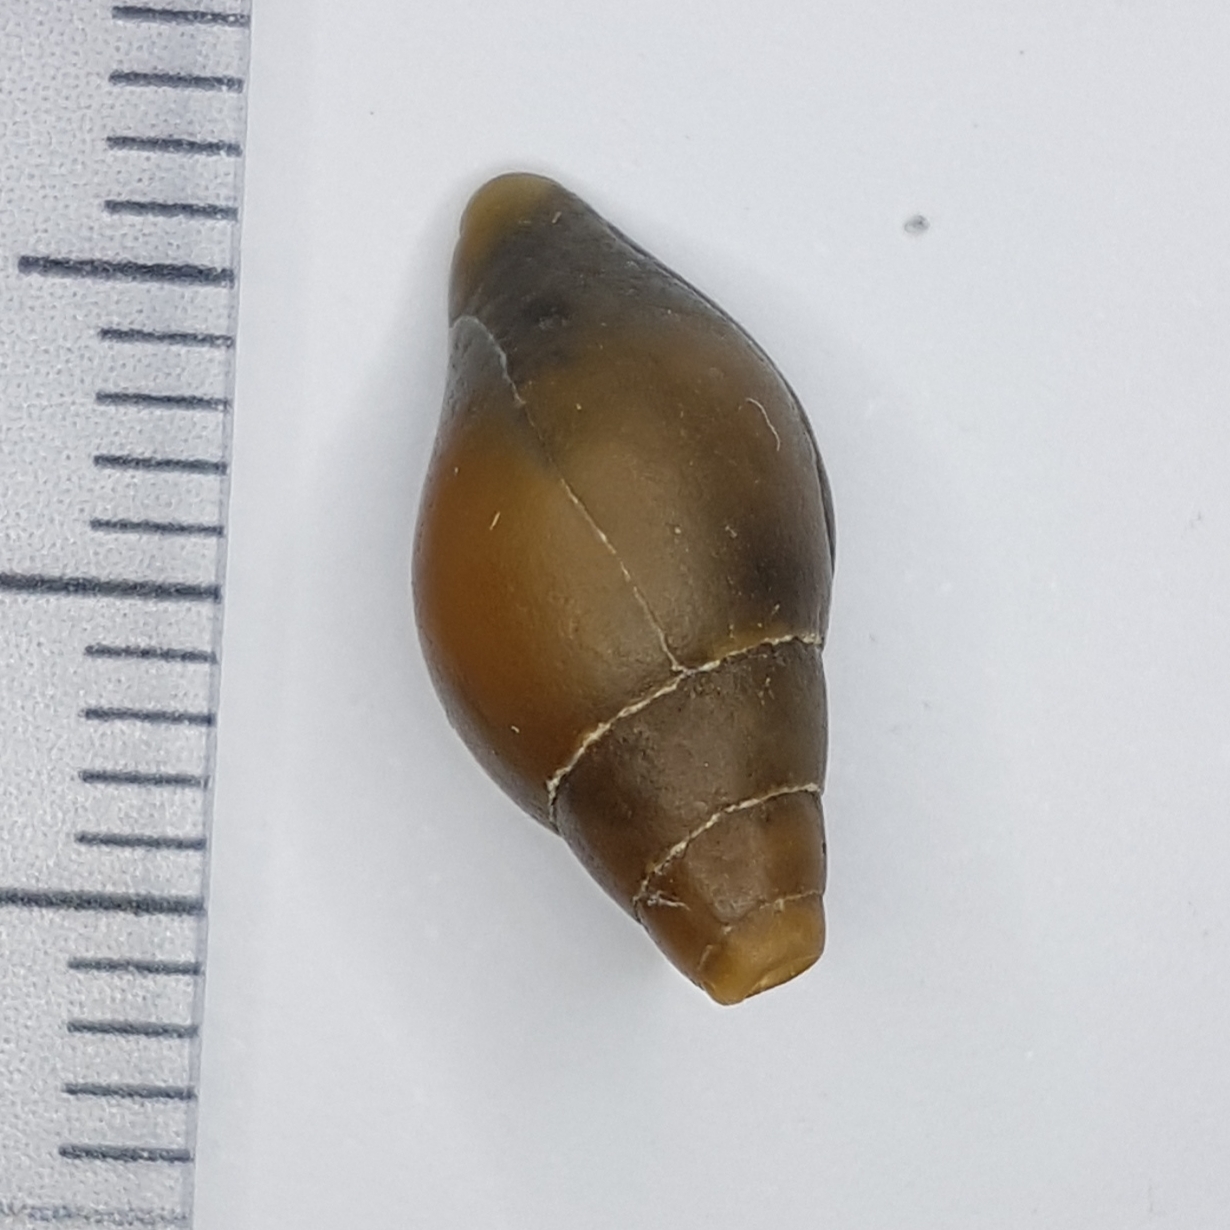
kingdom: Animalia
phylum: Mollusca
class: Gastropoda
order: Neogastropoda
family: Mitridae
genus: Episcomitra
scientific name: Episcomitra cornicula
